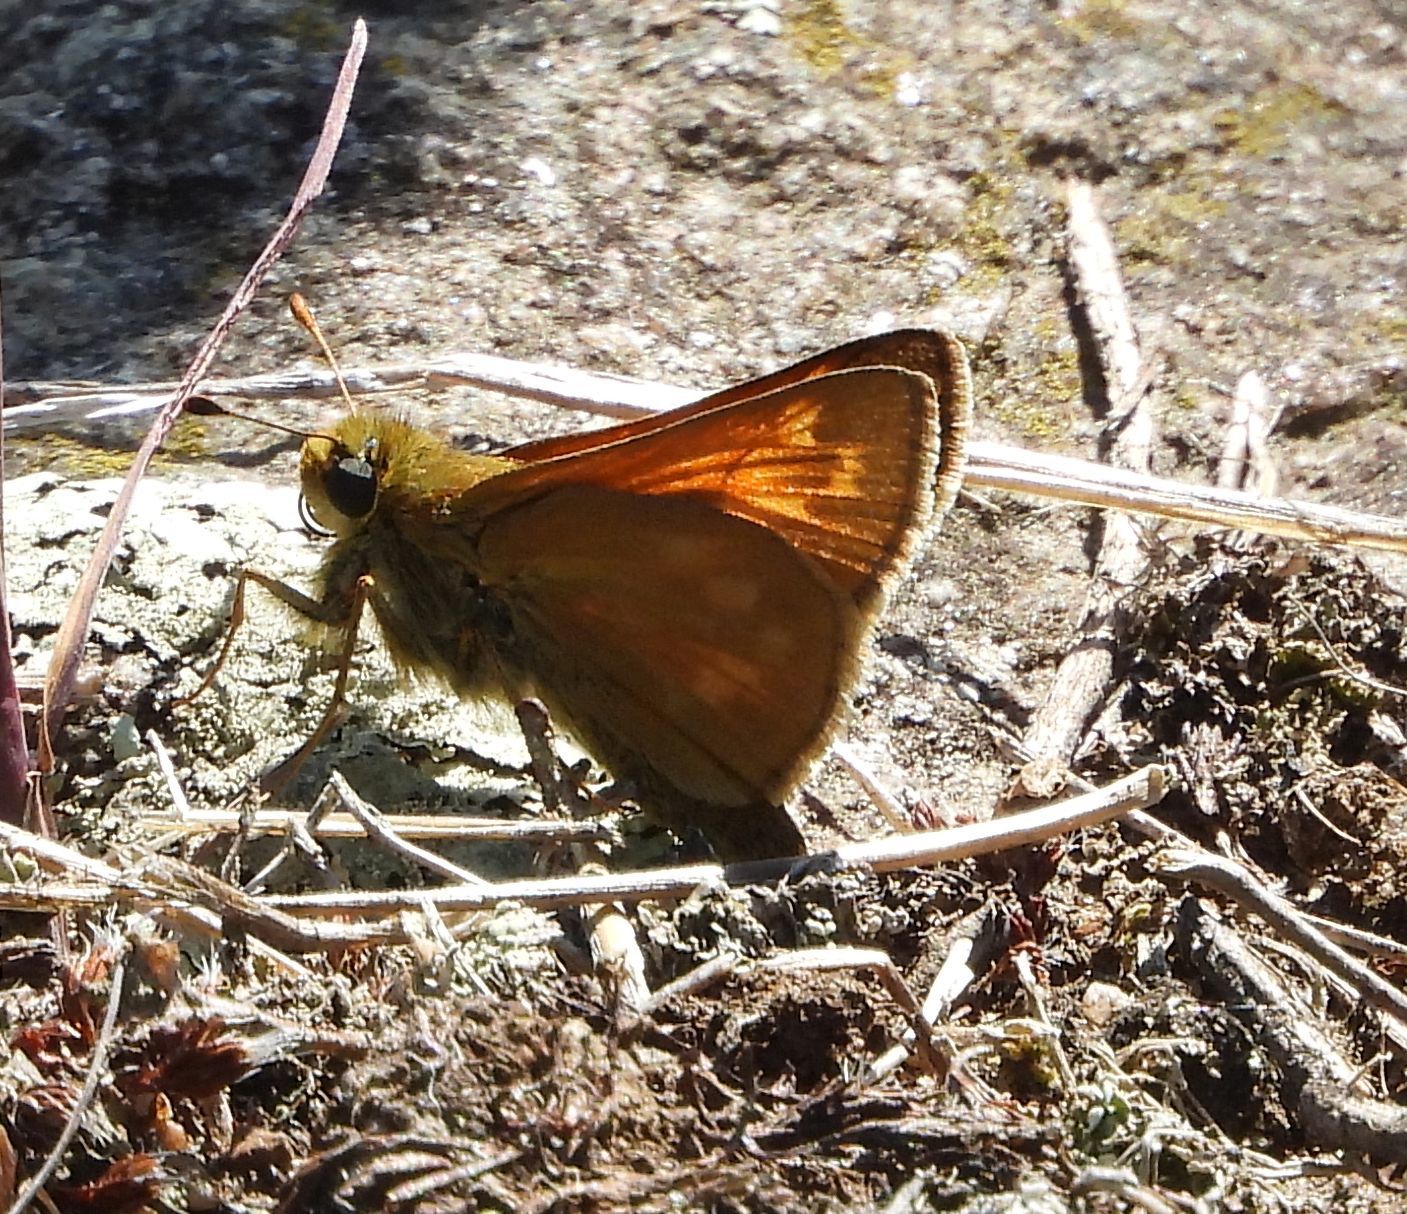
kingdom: Animalia
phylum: Arthropoda
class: Insecta
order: Lepidoptera
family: Hesperiidae
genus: Hesperia
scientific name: Hesperia sassacus
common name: Indian skipper
